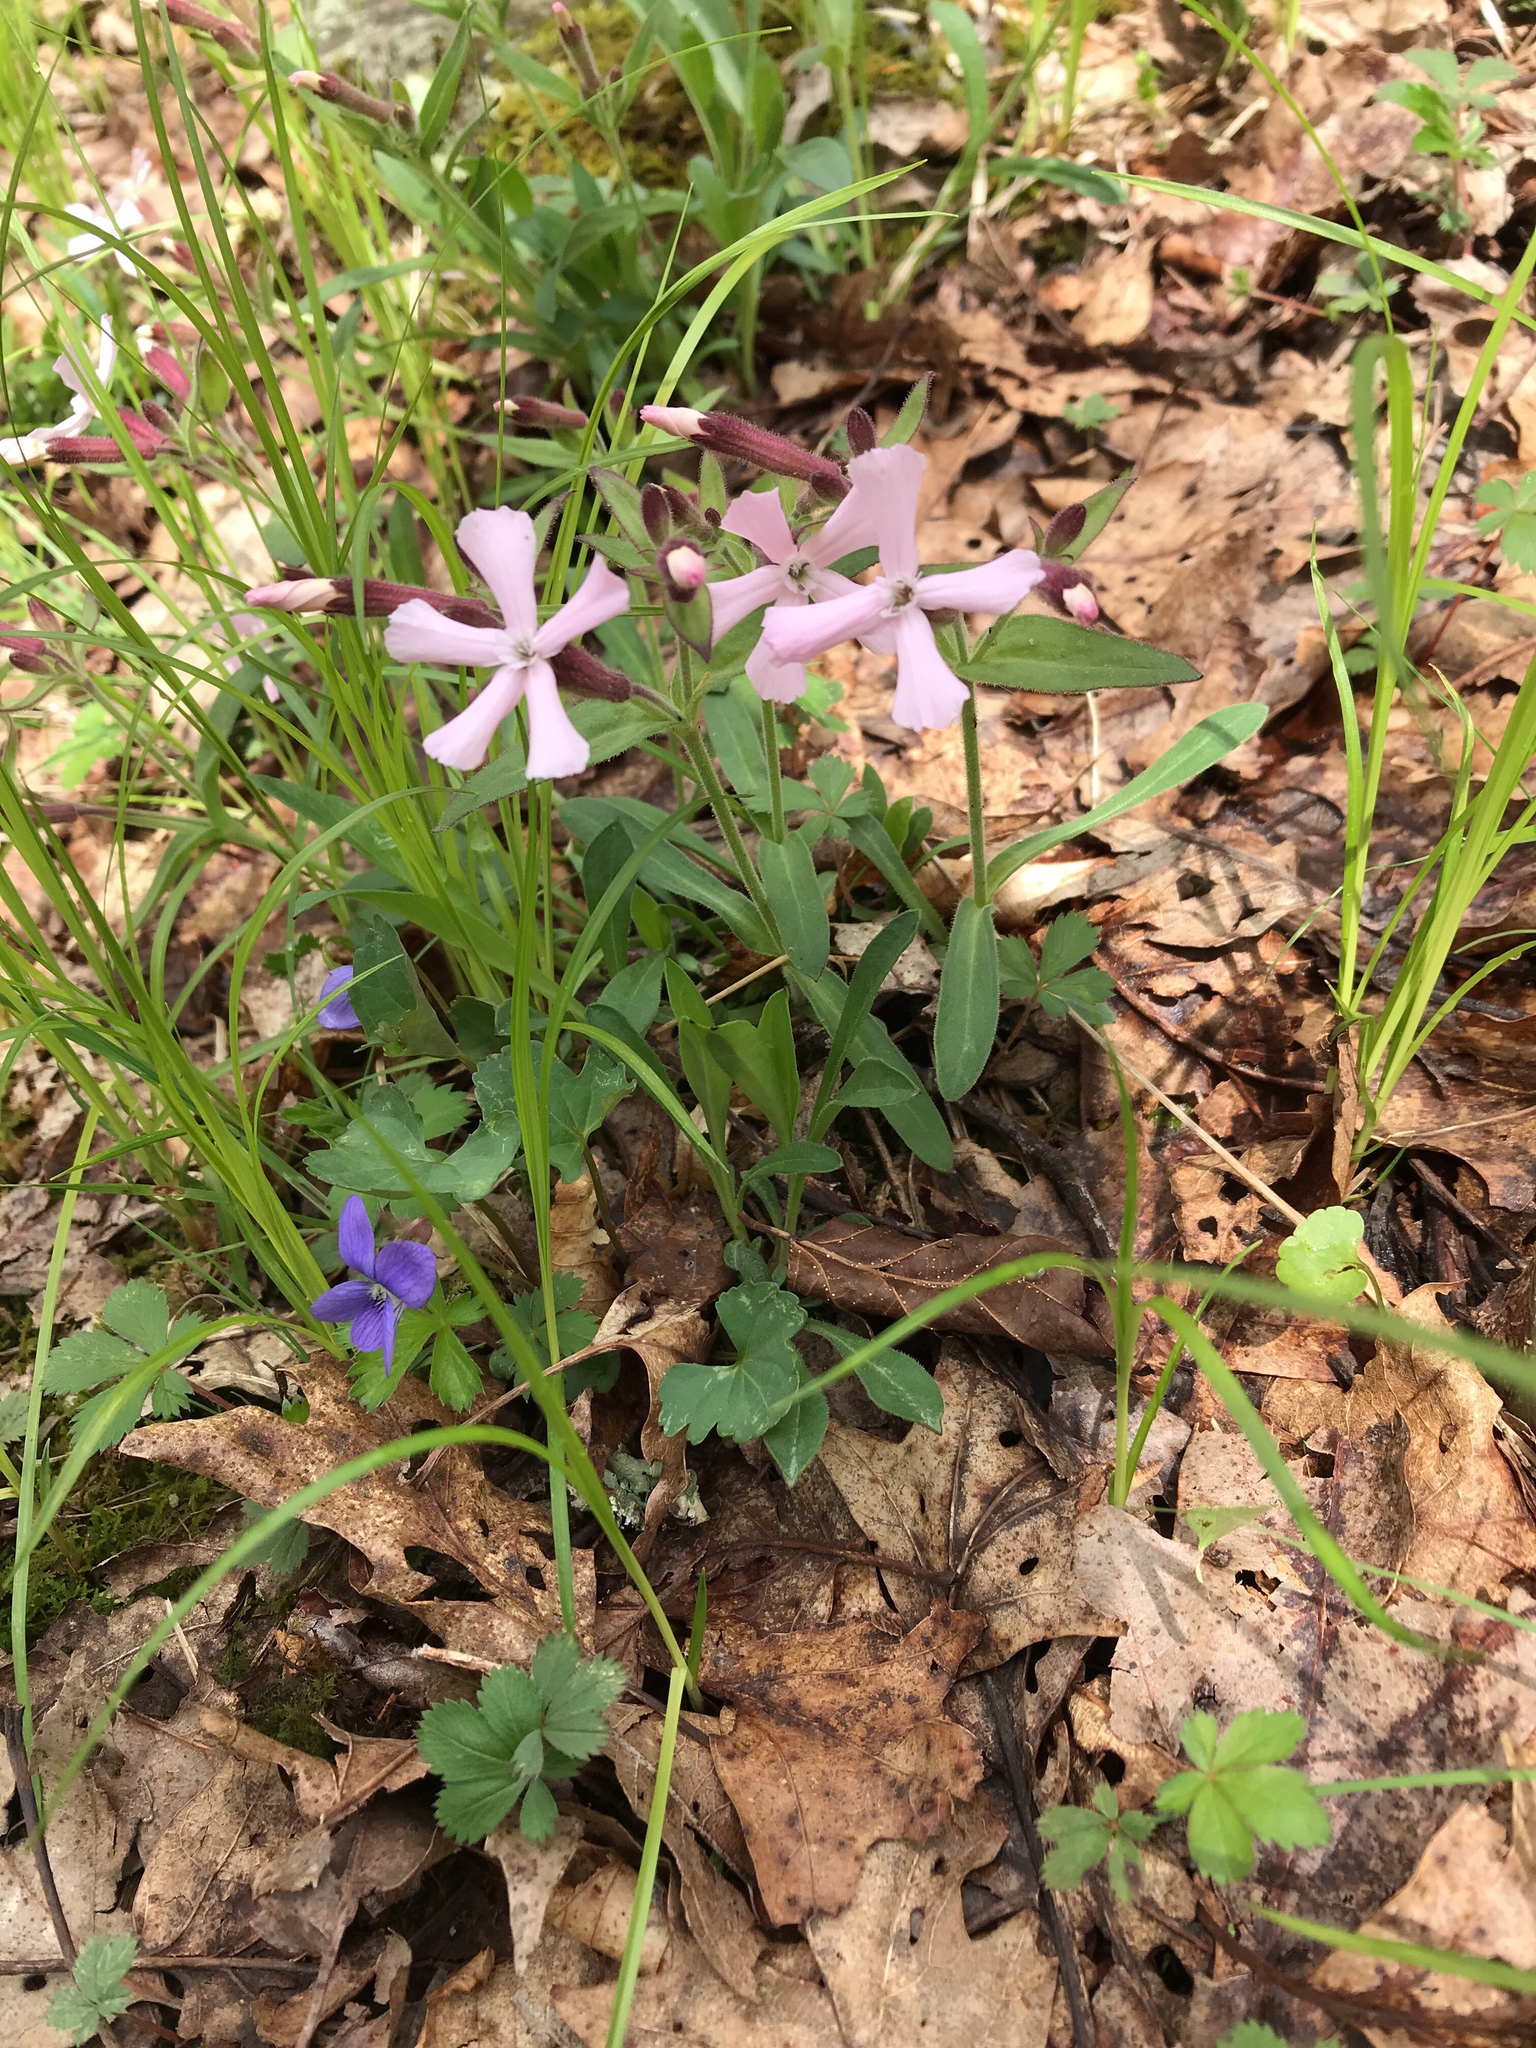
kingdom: Plantae
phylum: Tracheophyta
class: Magnoliopsida
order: Caryophyllales
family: Caryophyllaceae
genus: Silene
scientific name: Silene caroliniana
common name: Sticky catchfly
